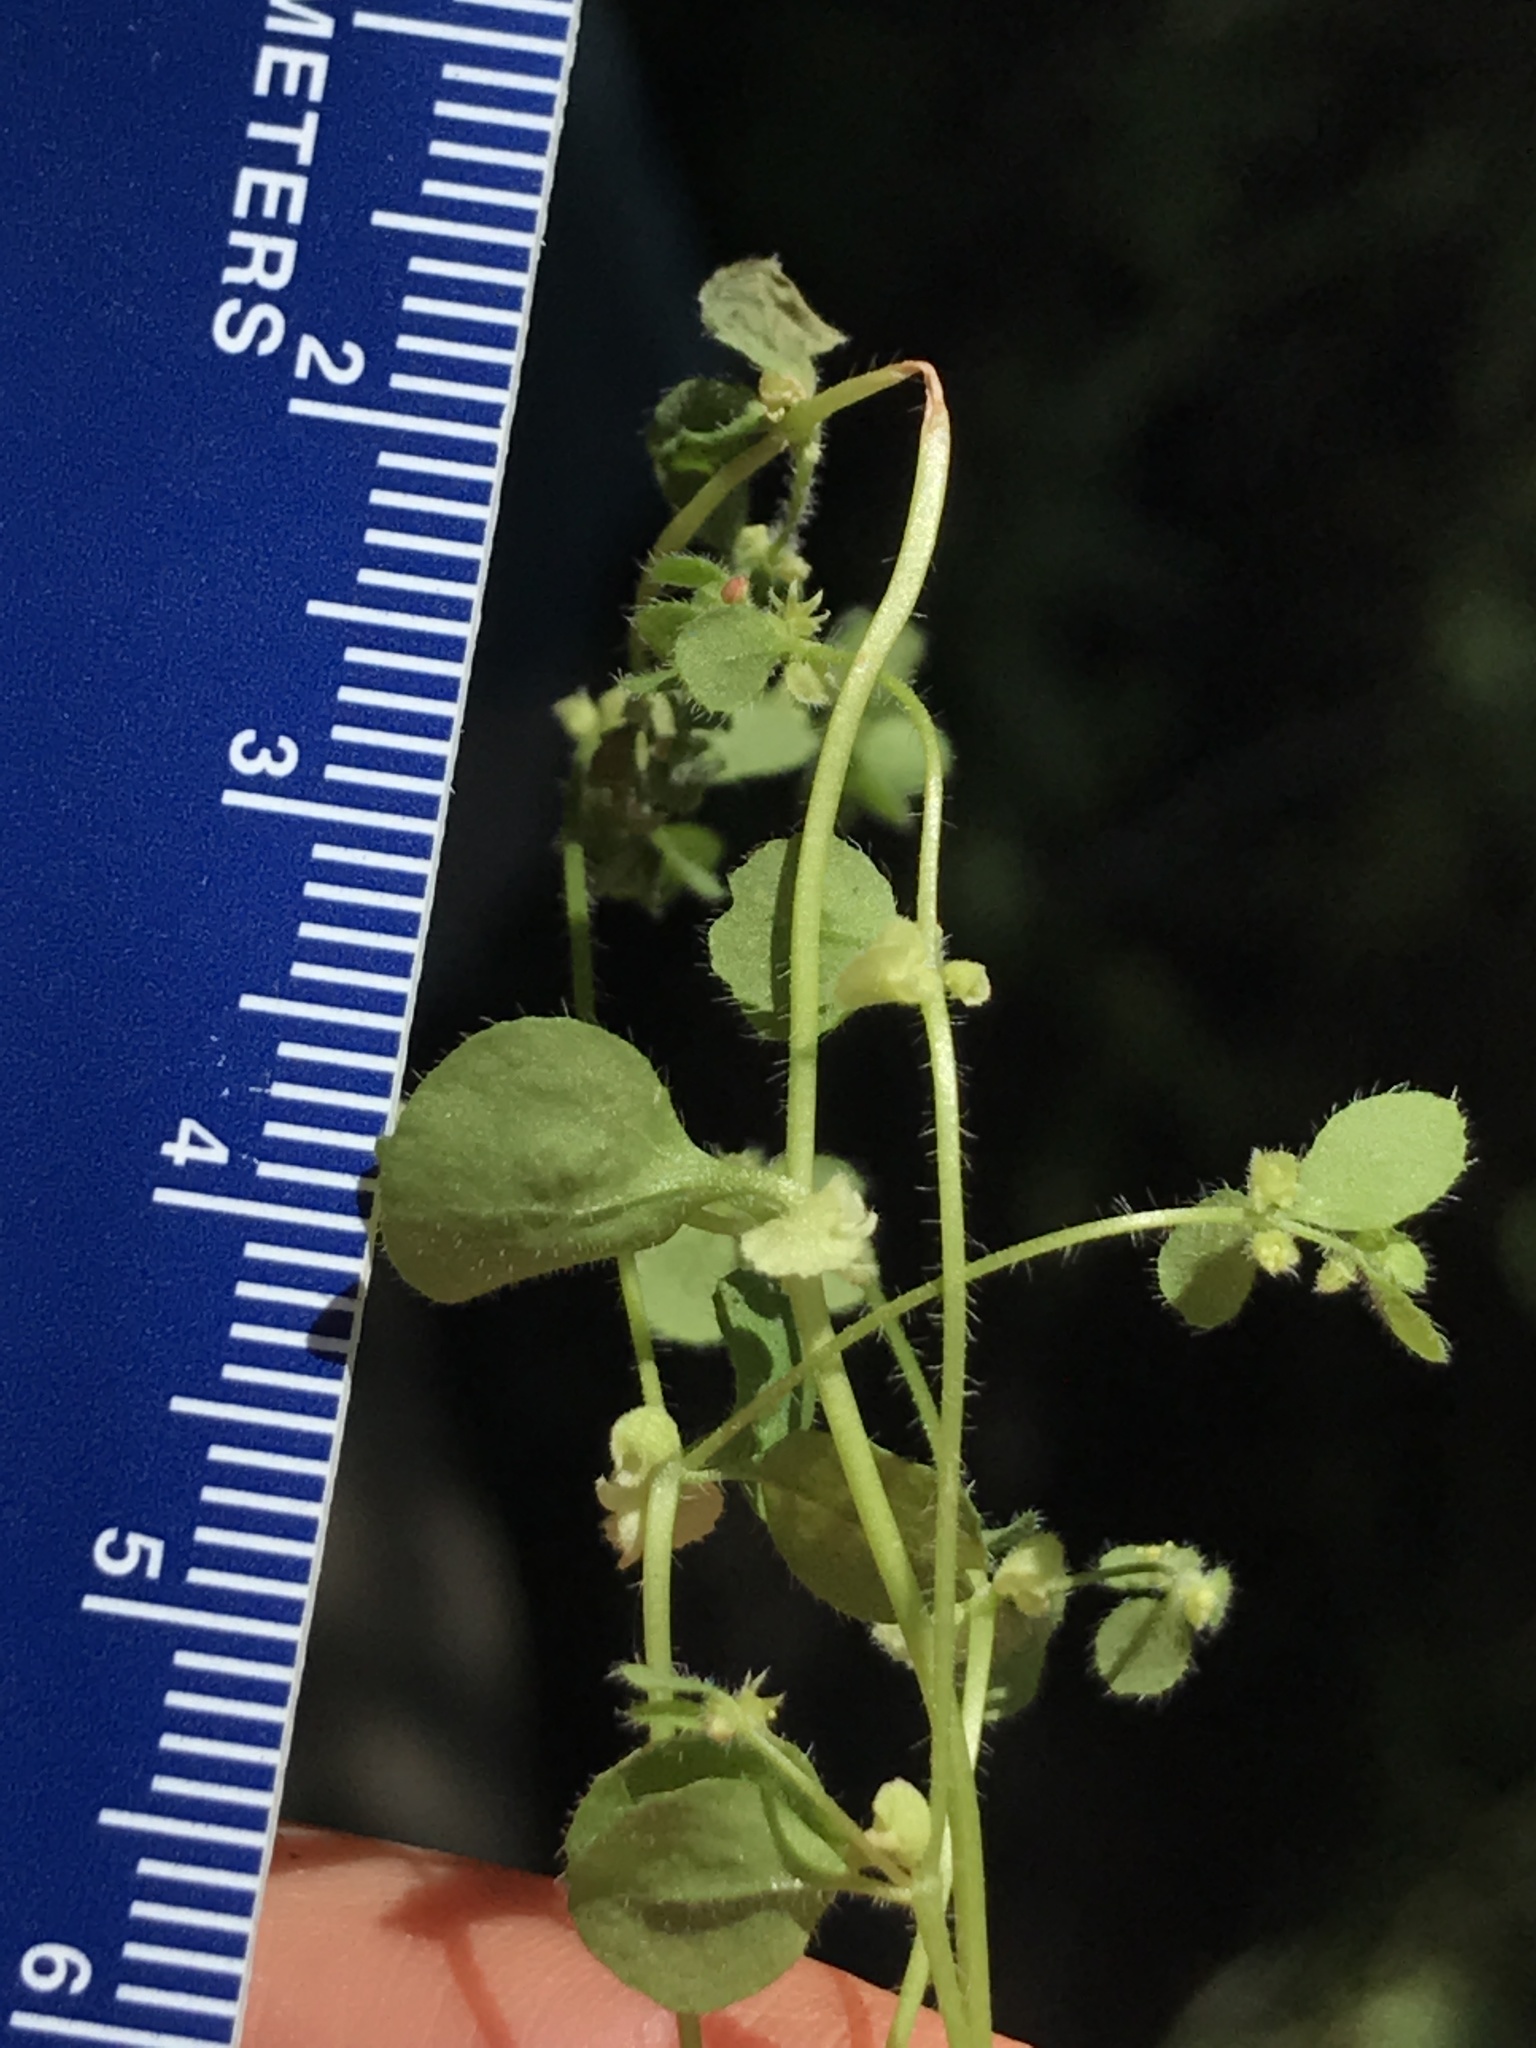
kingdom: Plantae
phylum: Tracheophyta
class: Magnoliopsida
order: Caryophyllales
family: Polygonaceae
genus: Pterostegia
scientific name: Pterostegia drymarioides
